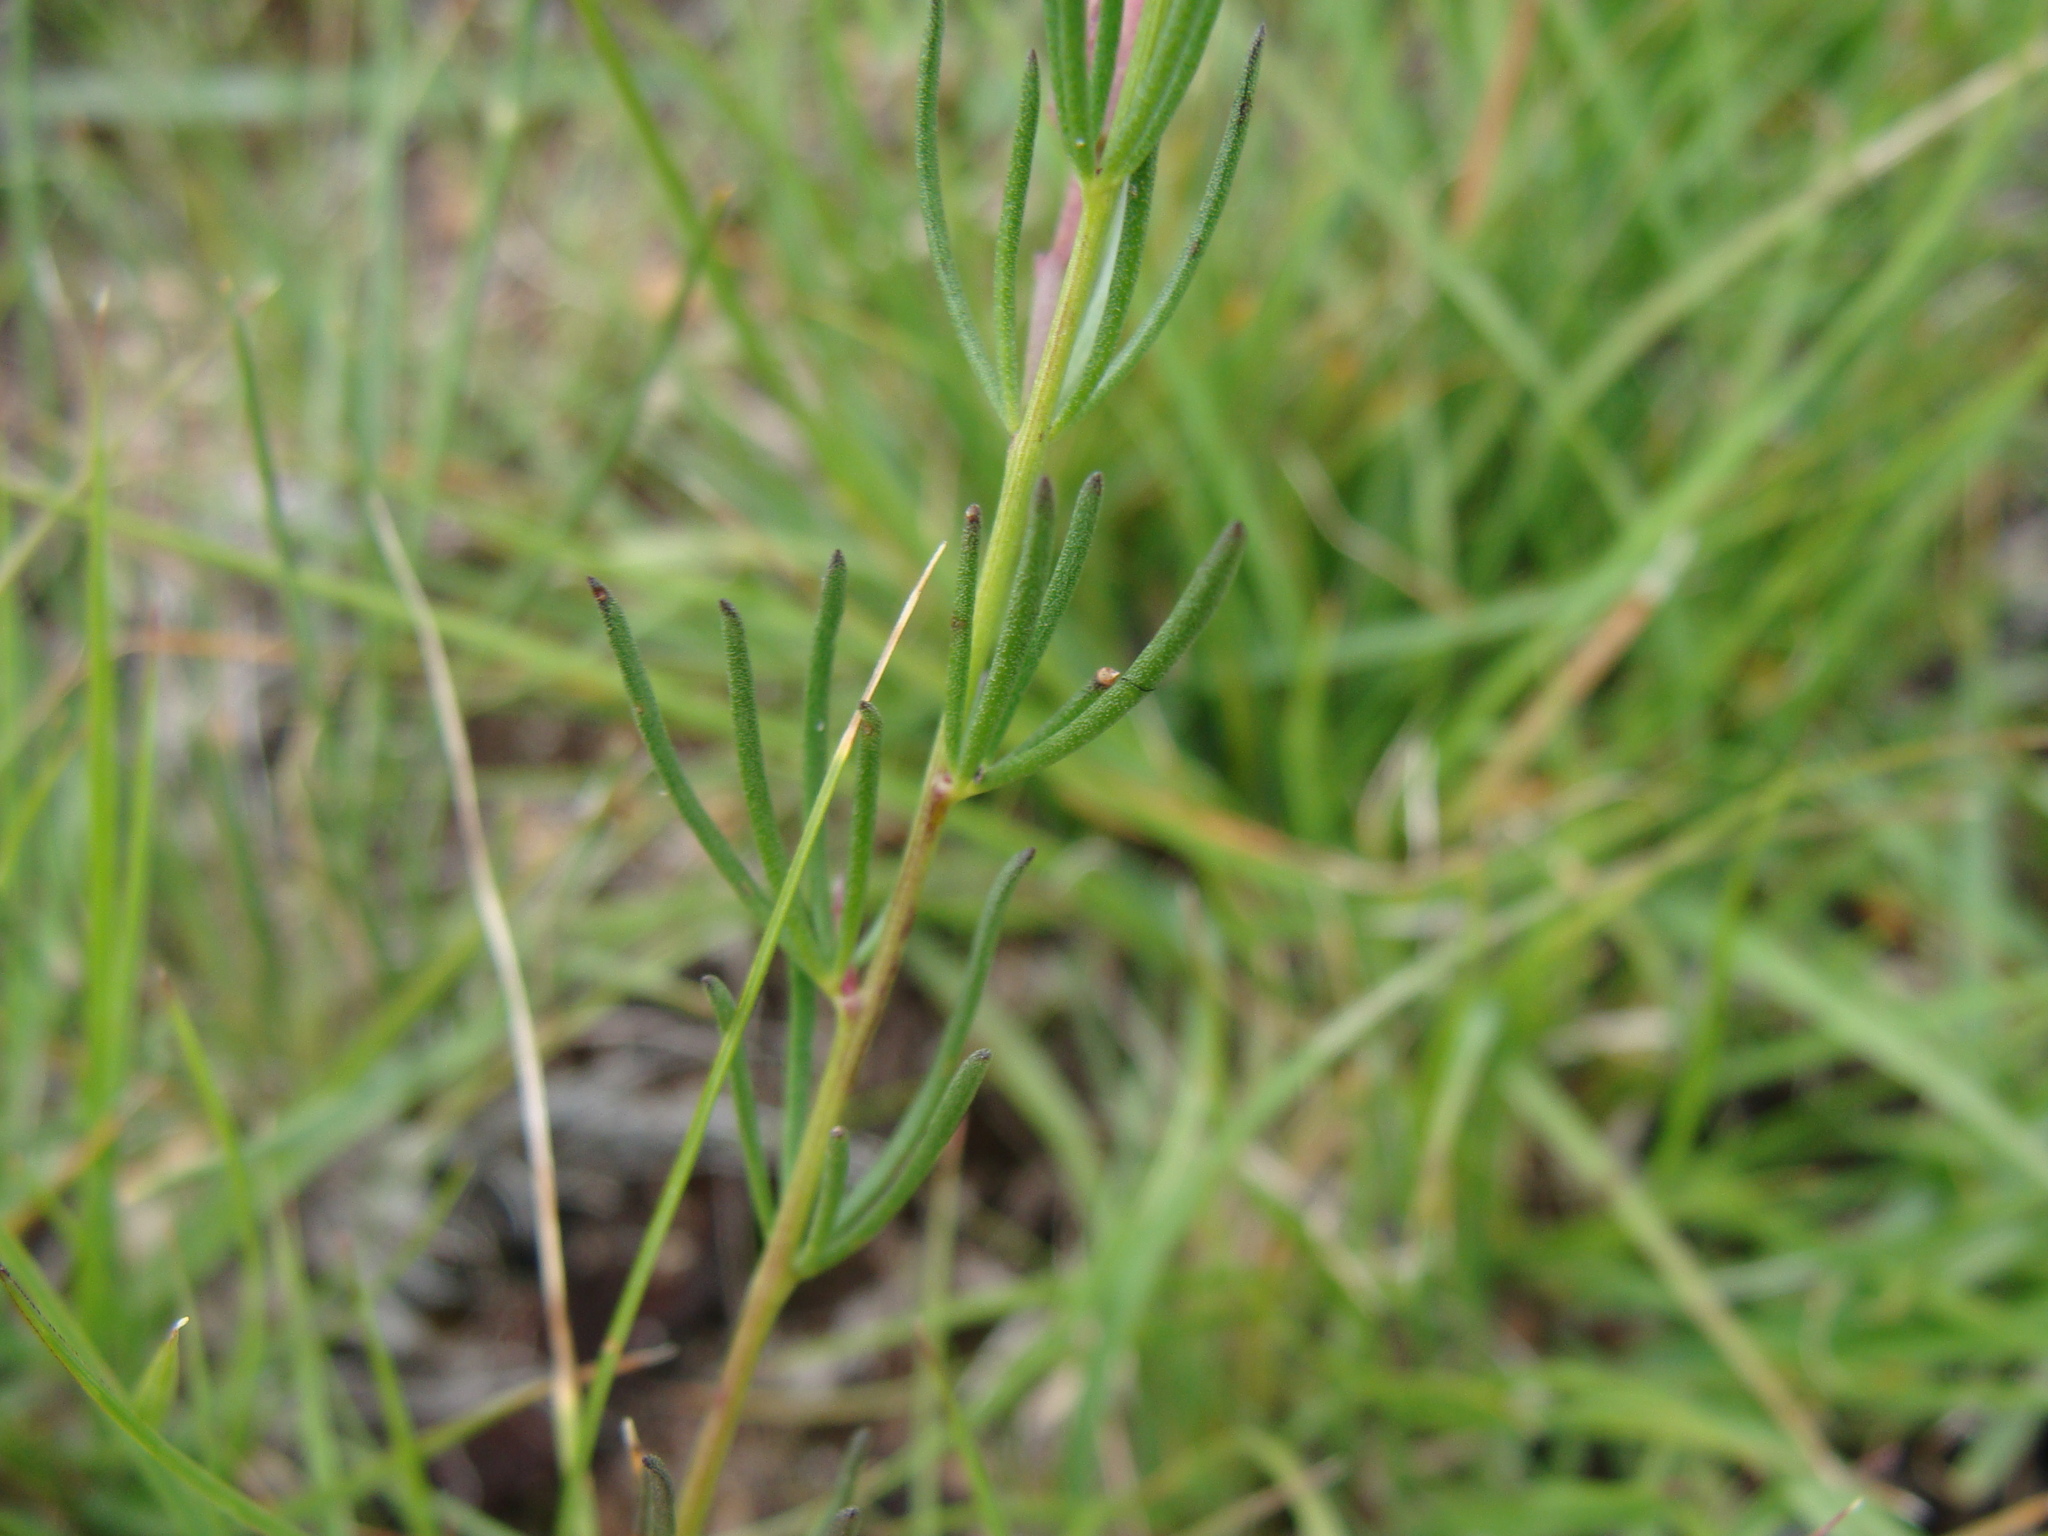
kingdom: Plantae
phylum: Tracheophyta
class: Magnoliopsida
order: Solanales
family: Convolvulaceae
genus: Ipomoea
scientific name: Ipomoea capillacea
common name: Purple morning-glory
